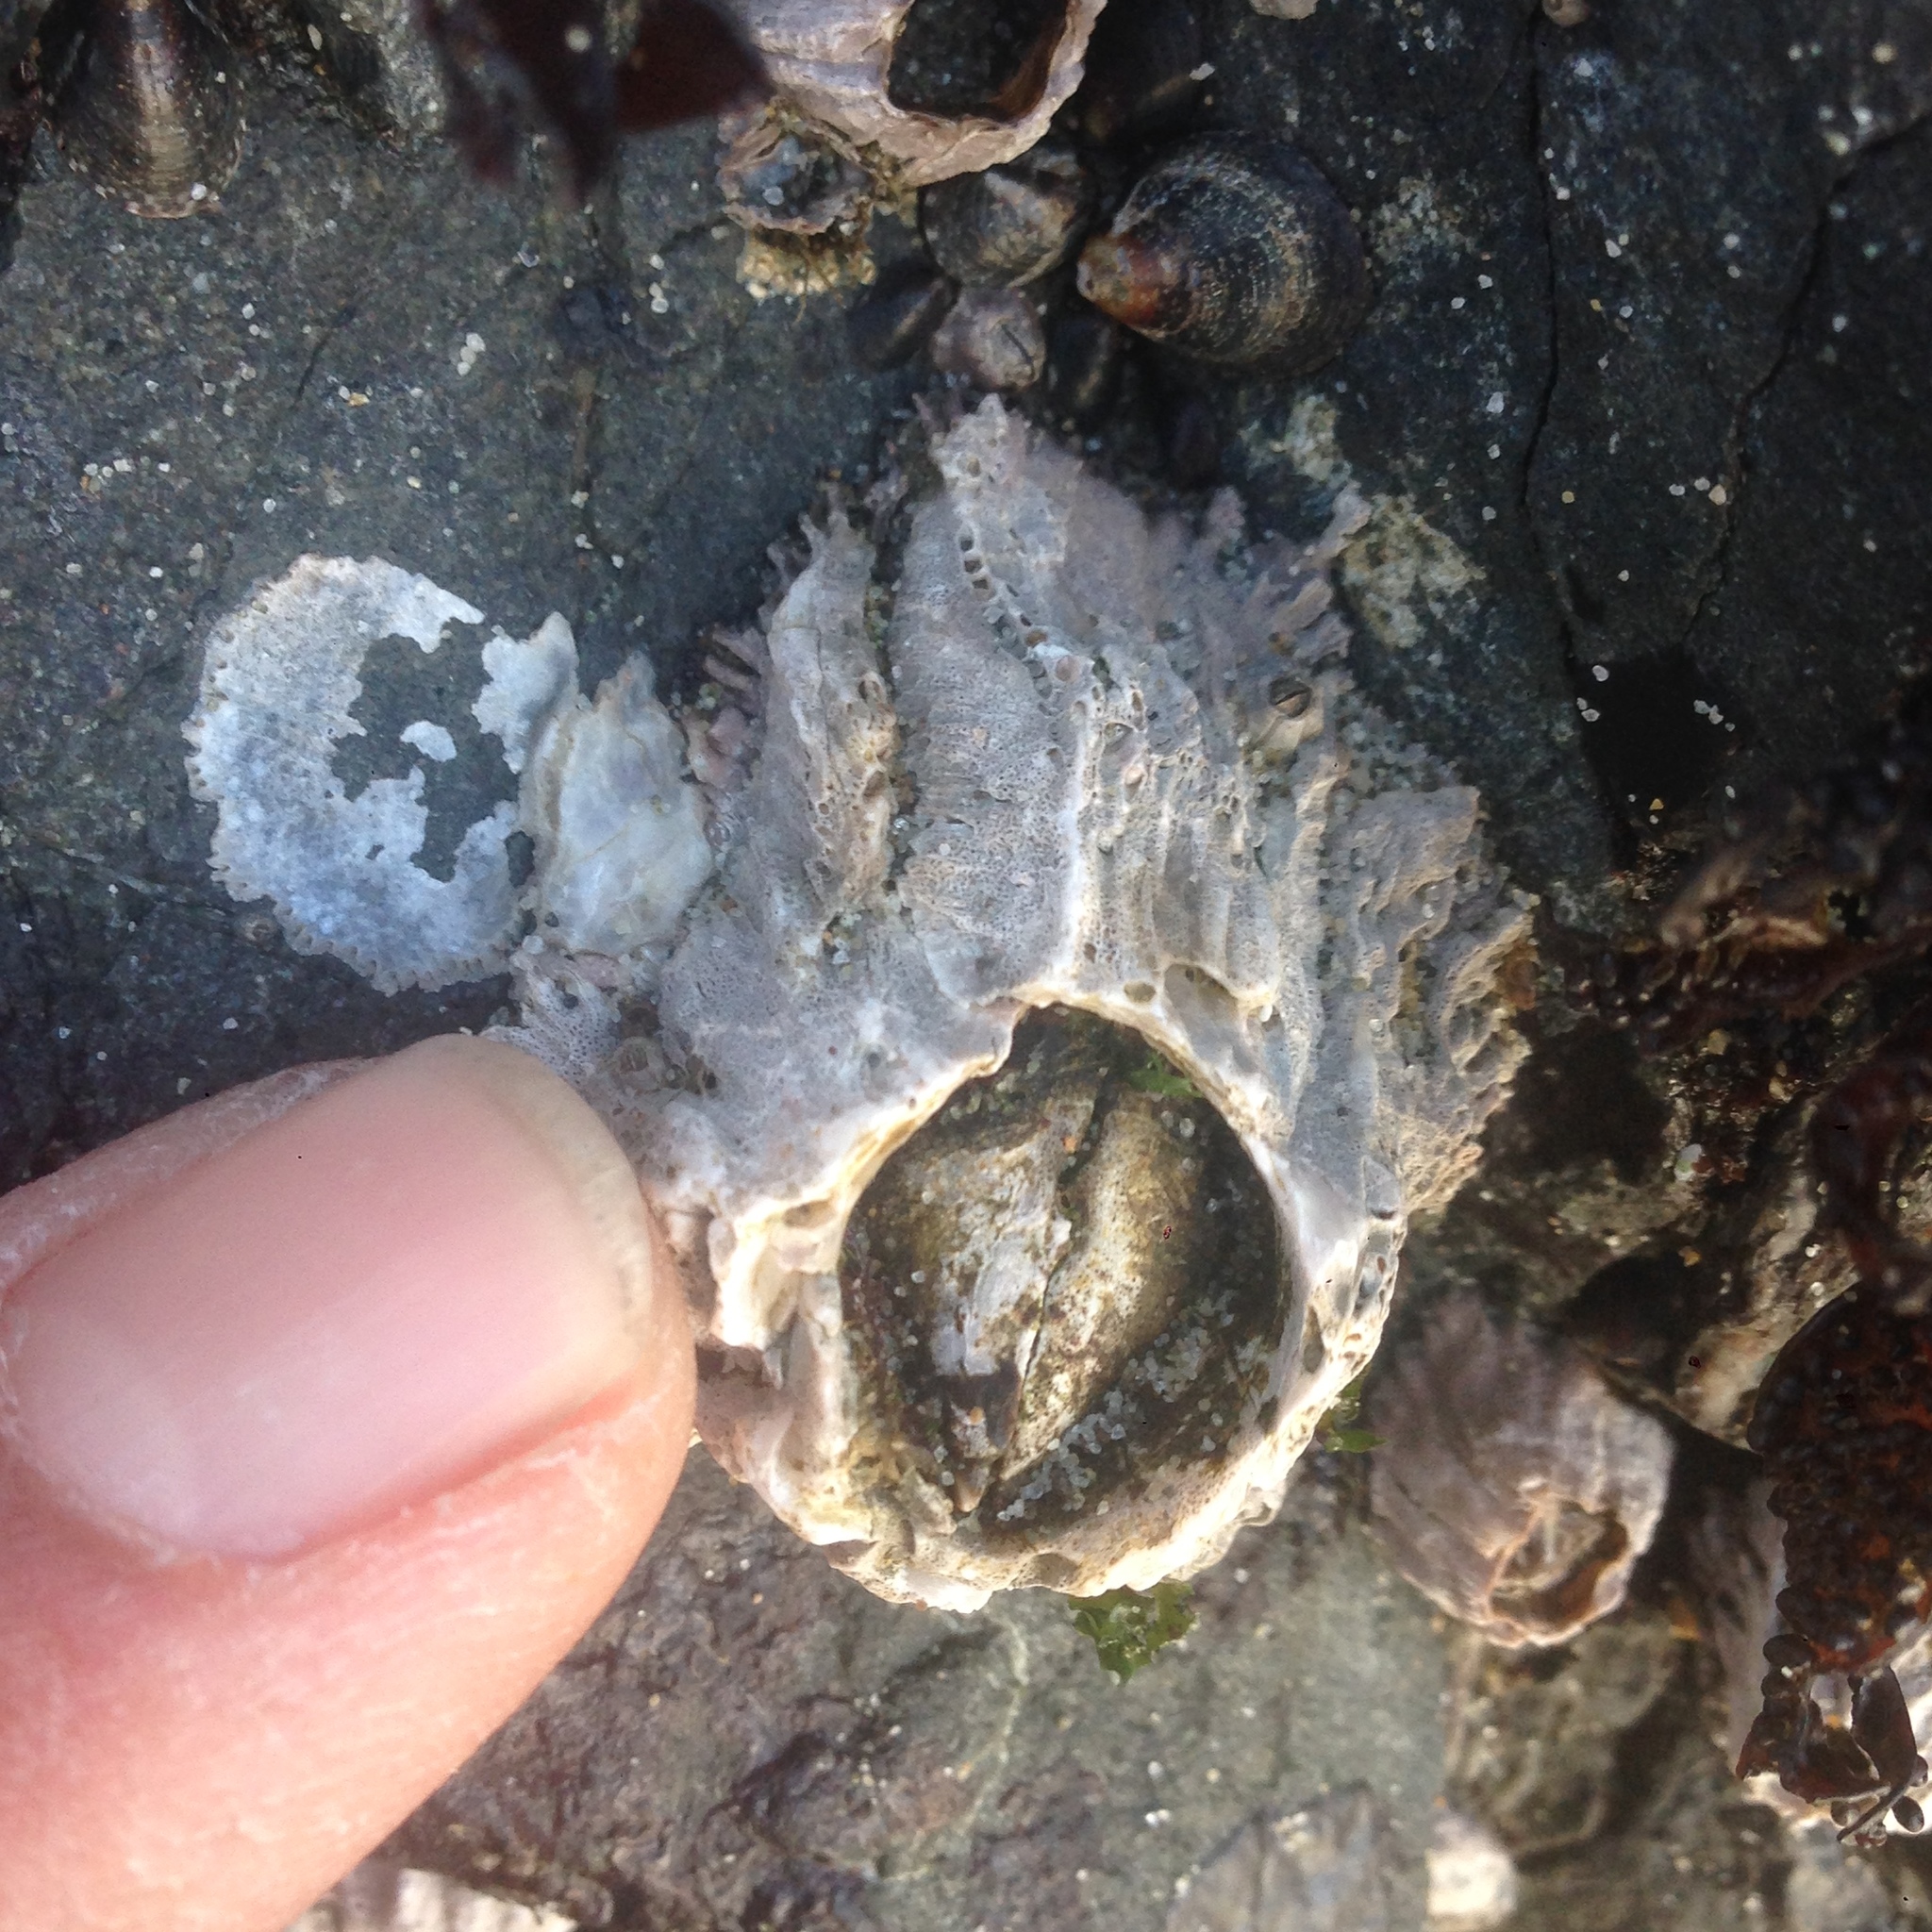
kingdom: Animalia
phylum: Arthropoda
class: Maxillopoda
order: Sessilia
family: Archaeobalanidae
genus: Semibalanus
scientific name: Semibalanus cariosus
